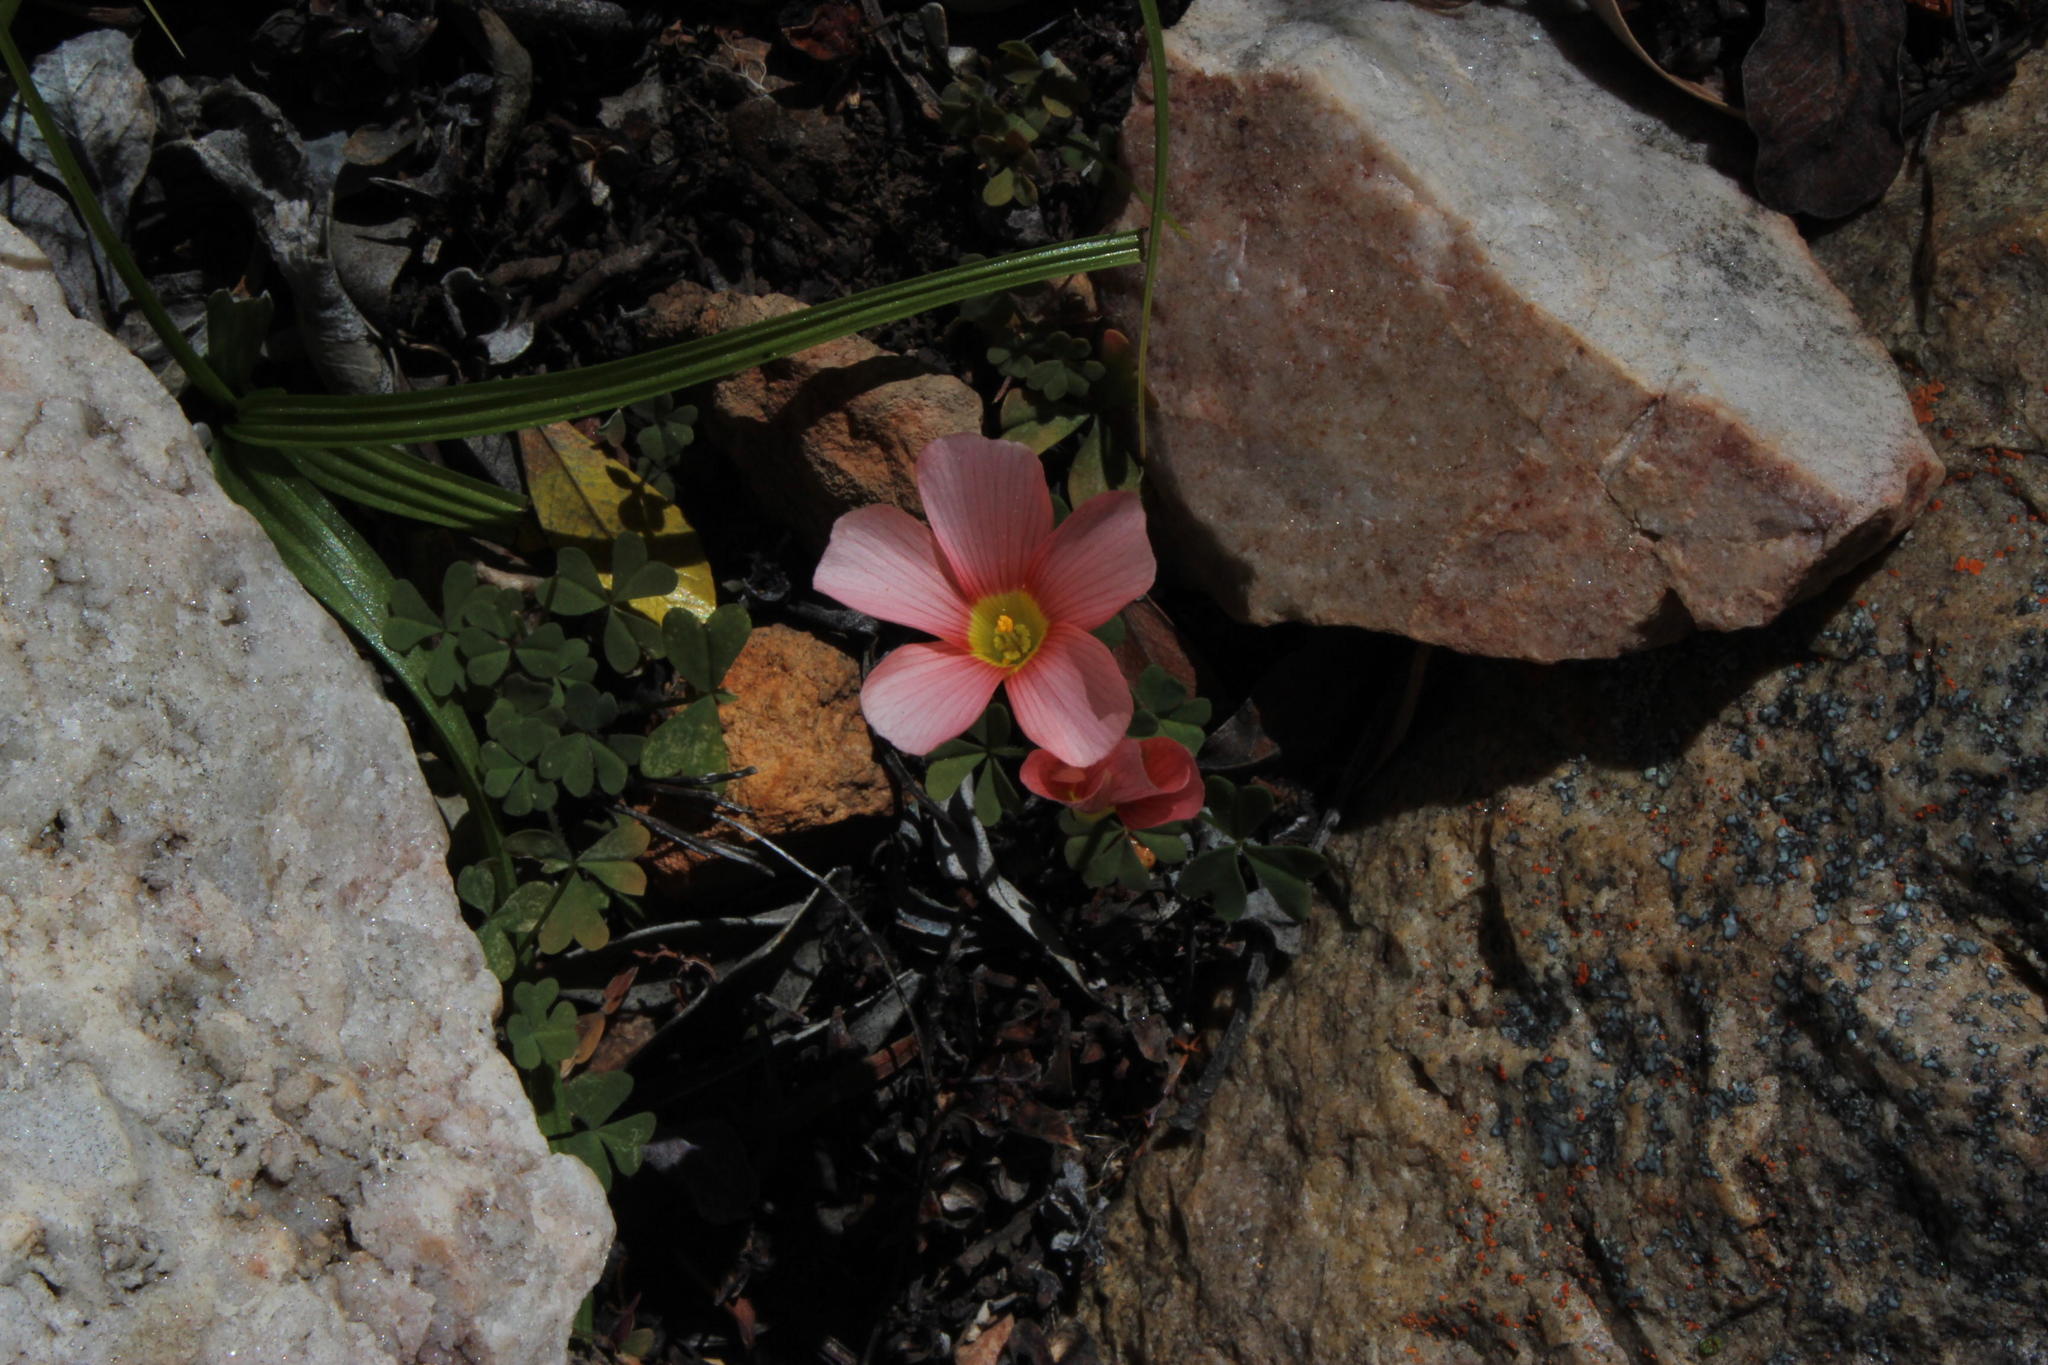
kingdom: Plantae
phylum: Tracheophyta
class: Magnoliopsida
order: Oxalidales
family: Oxalidaceae
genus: Oxalis
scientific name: Oxalis obtusa
